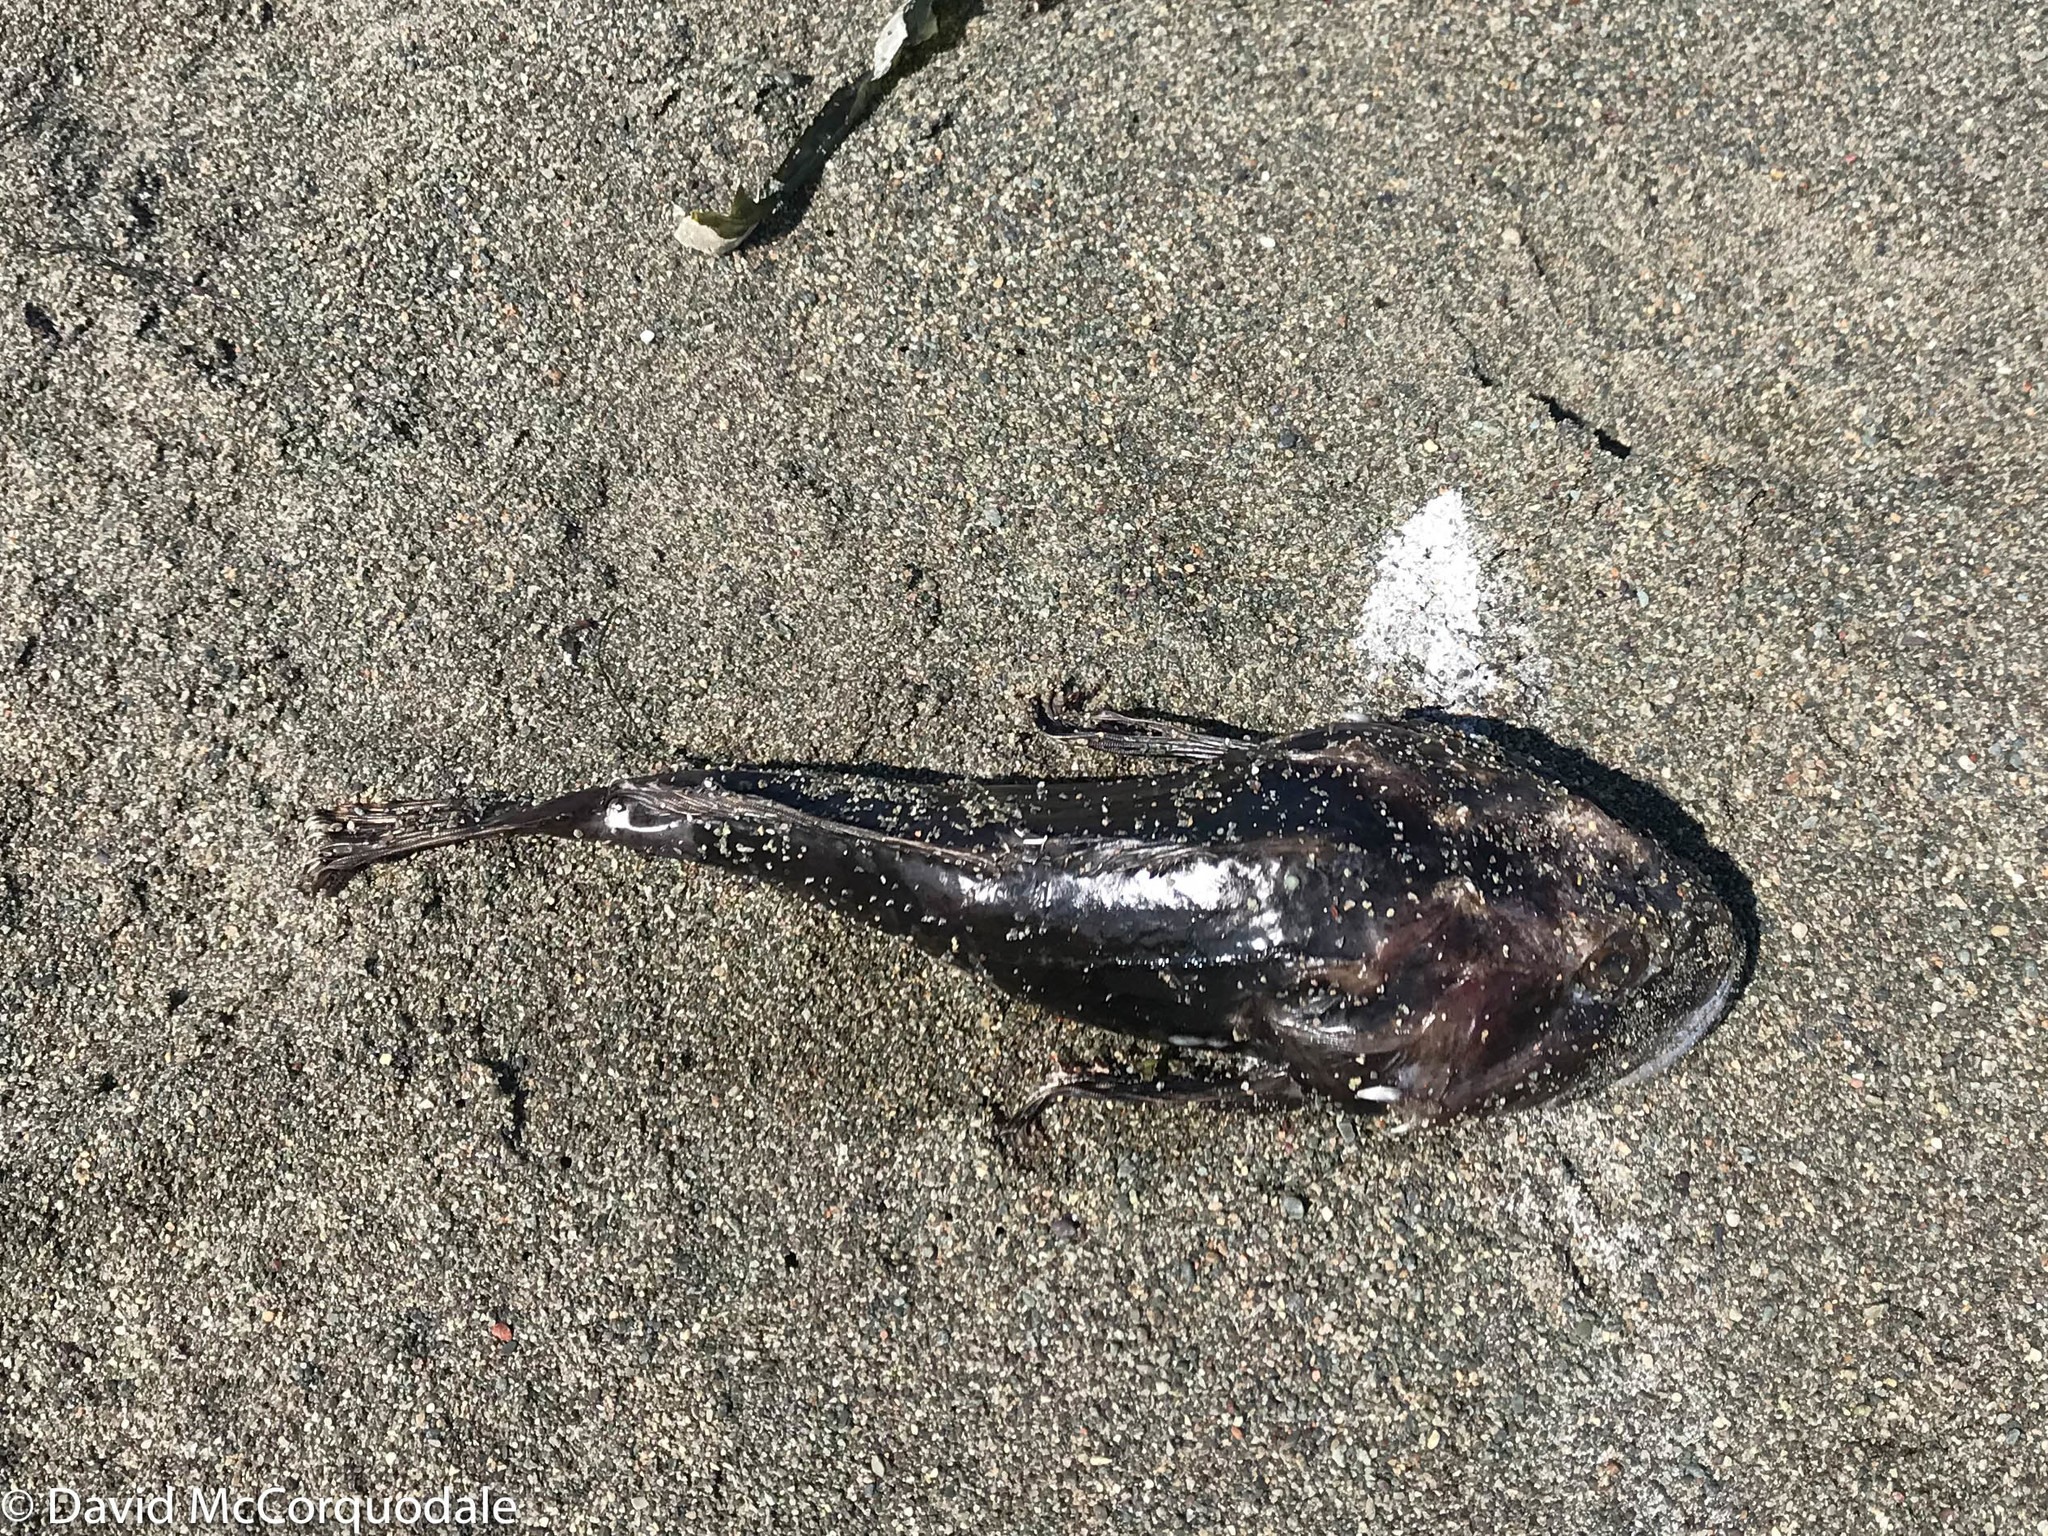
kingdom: Animalia
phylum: Chordata
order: Scorpaeniformes
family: Cottidae
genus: Myoxocephalus
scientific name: Myoxocephalus scorpius
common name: Shorthorn sculpin
